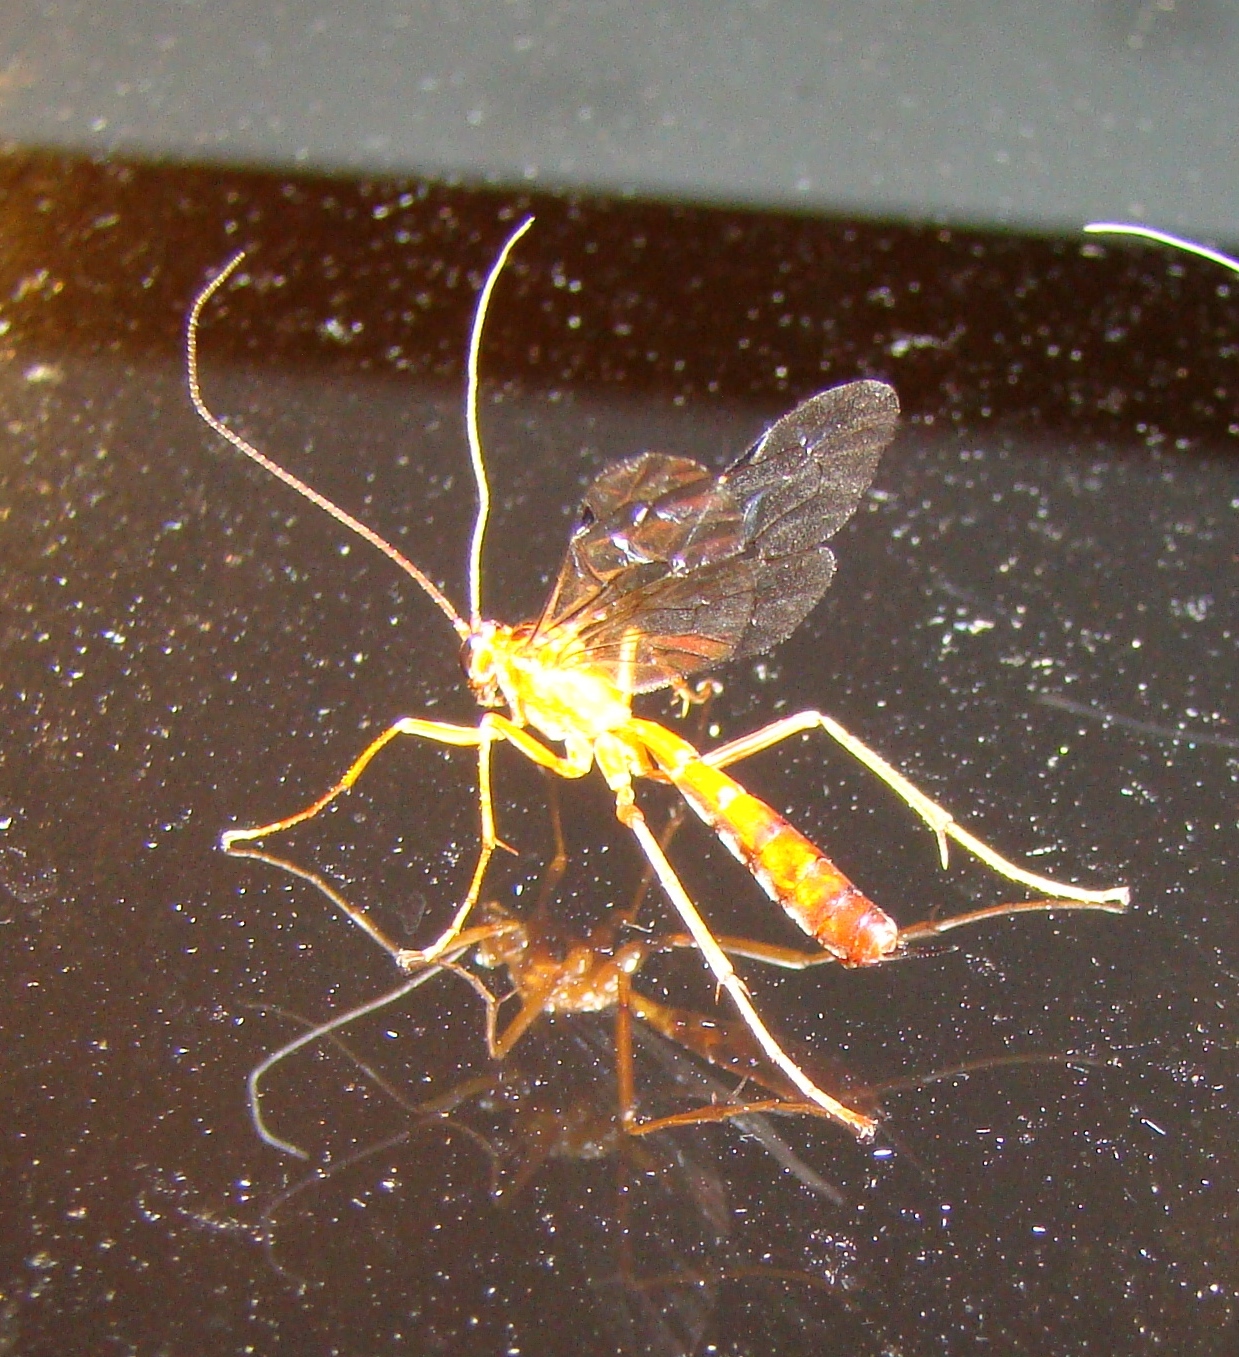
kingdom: Animalia
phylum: Arthropoda
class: Insecta
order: Hymenoptera
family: Ichneumonidae
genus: Netelia
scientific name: Netelia ephippiata
